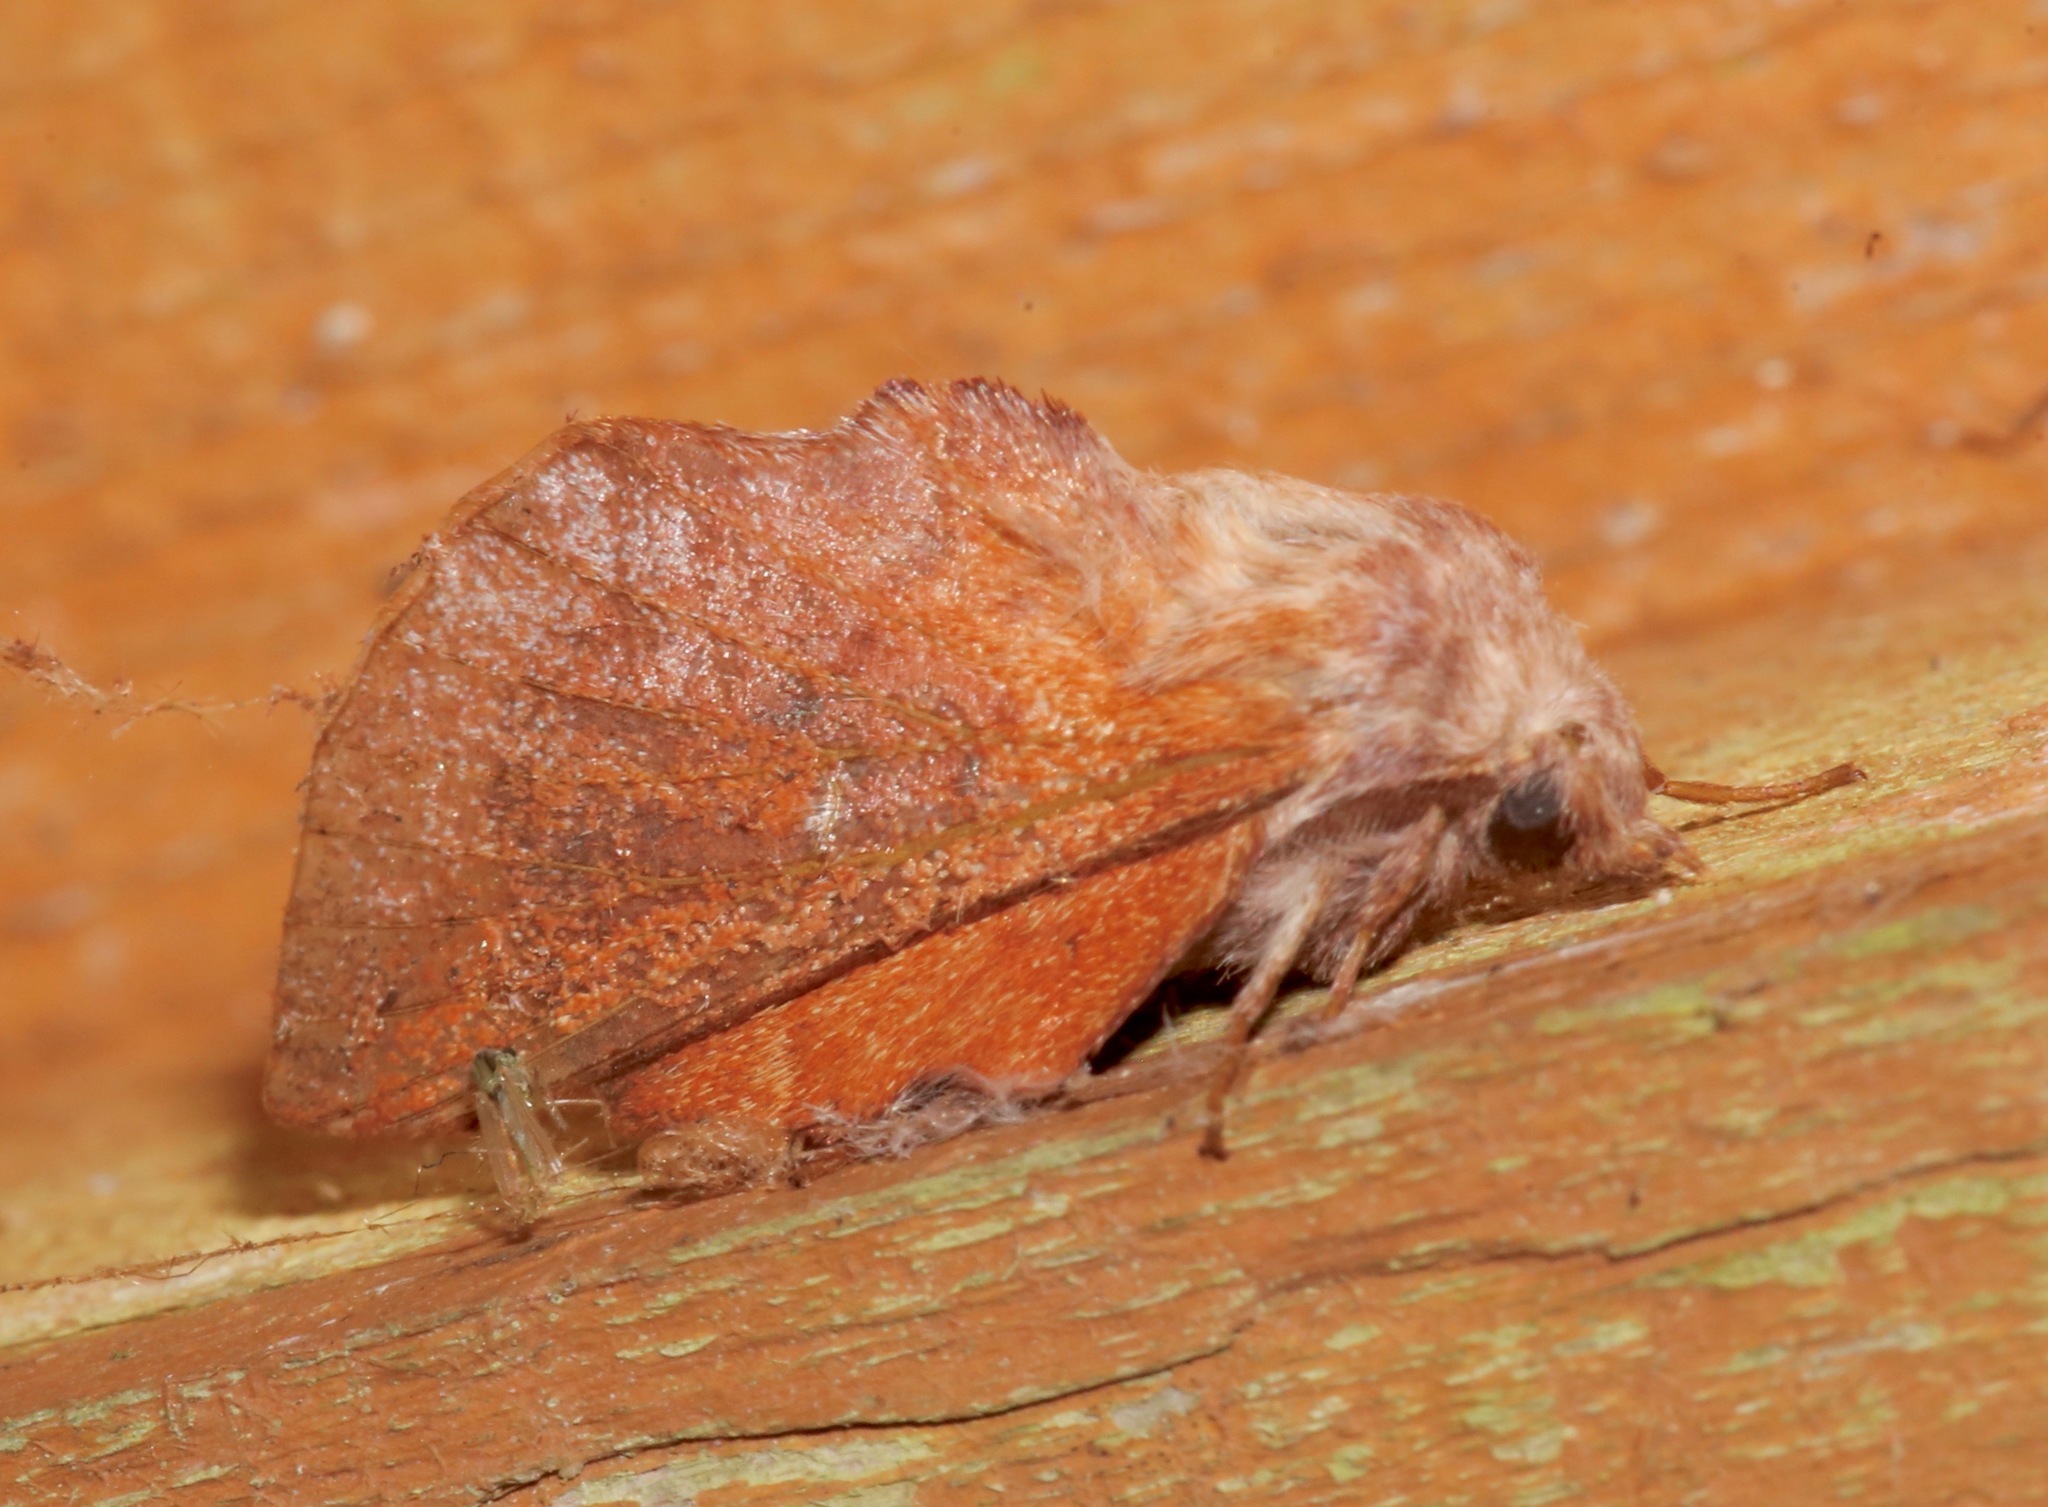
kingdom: Animalia
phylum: Arthropoda
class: Insecta
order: Lepidoptera
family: Lasiocampidae
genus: Phyllodesma
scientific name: Phyllodesma americana
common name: American lappet moth
